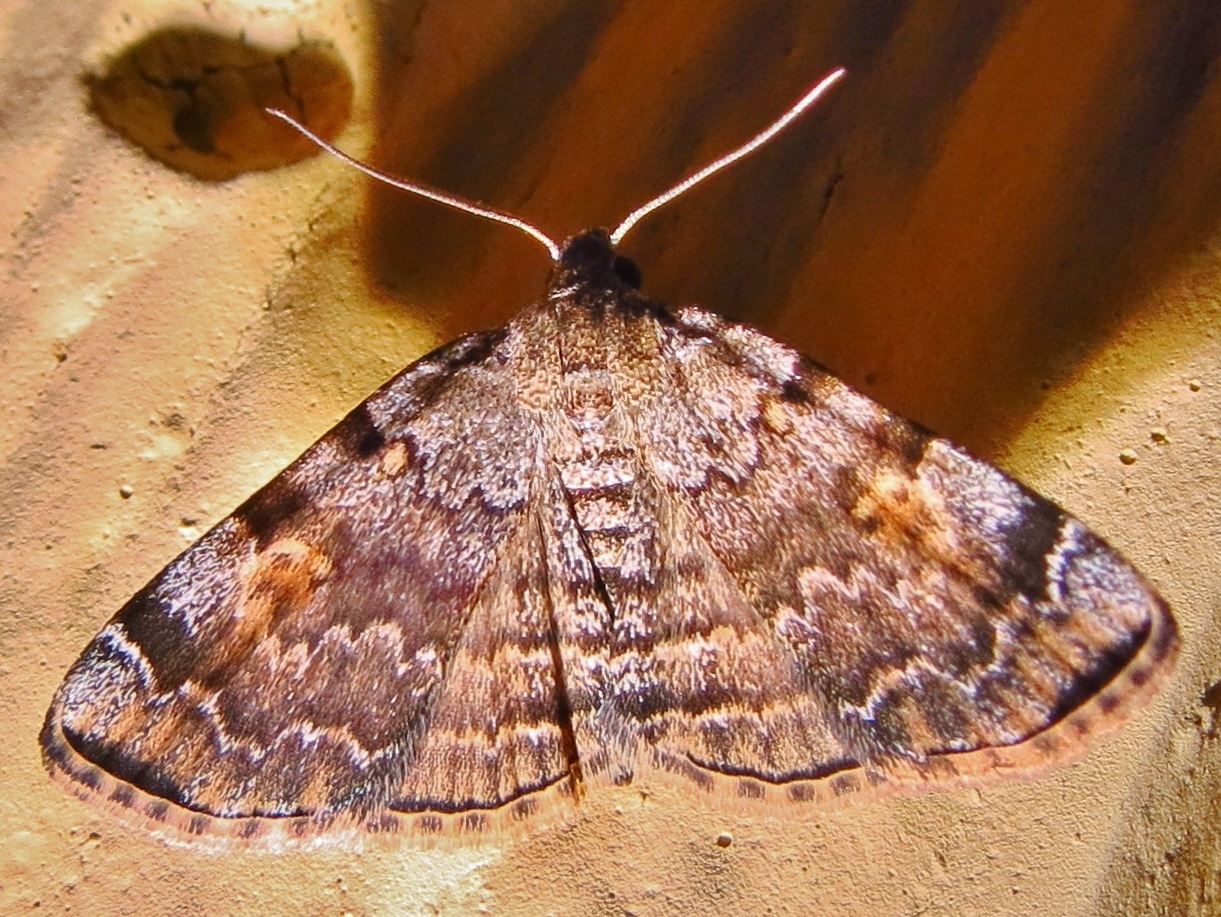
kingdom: Animalia
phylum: Arthropoda
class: Insecta
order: Lepidoptera
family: Erebidae
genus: Idia
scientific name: Idia americalis
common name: American idia moth
